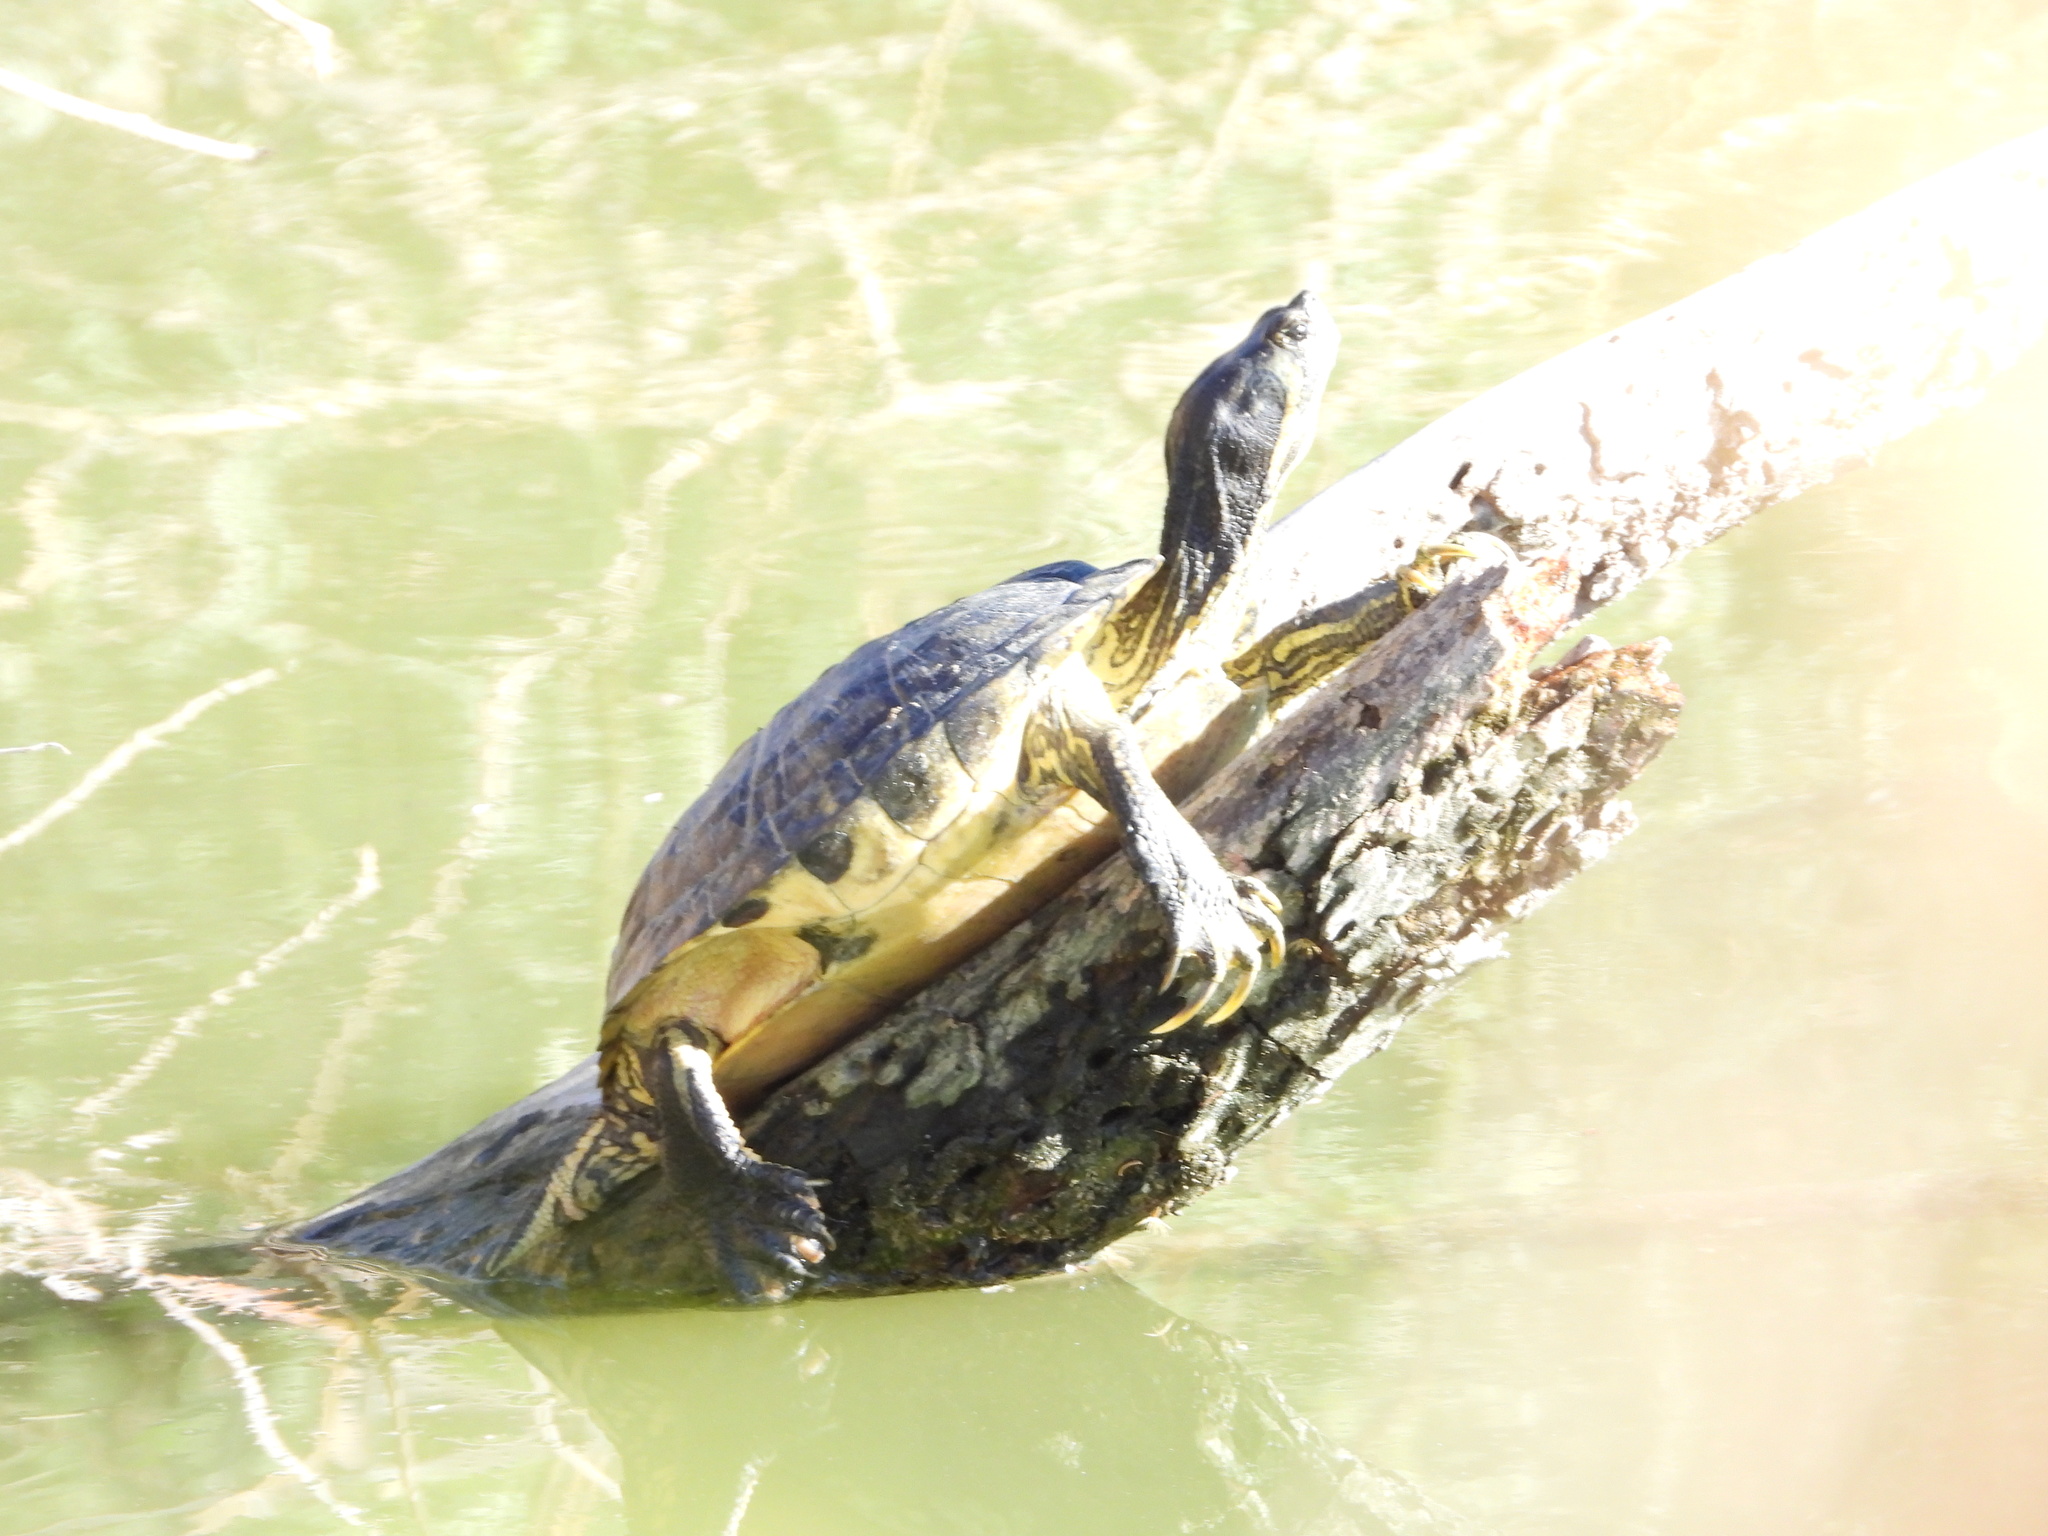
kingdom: Animalia
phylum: Chordata
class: Testudines
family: Emydidae
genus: Trachemys
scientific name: Trachemys scripta
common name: Slider
